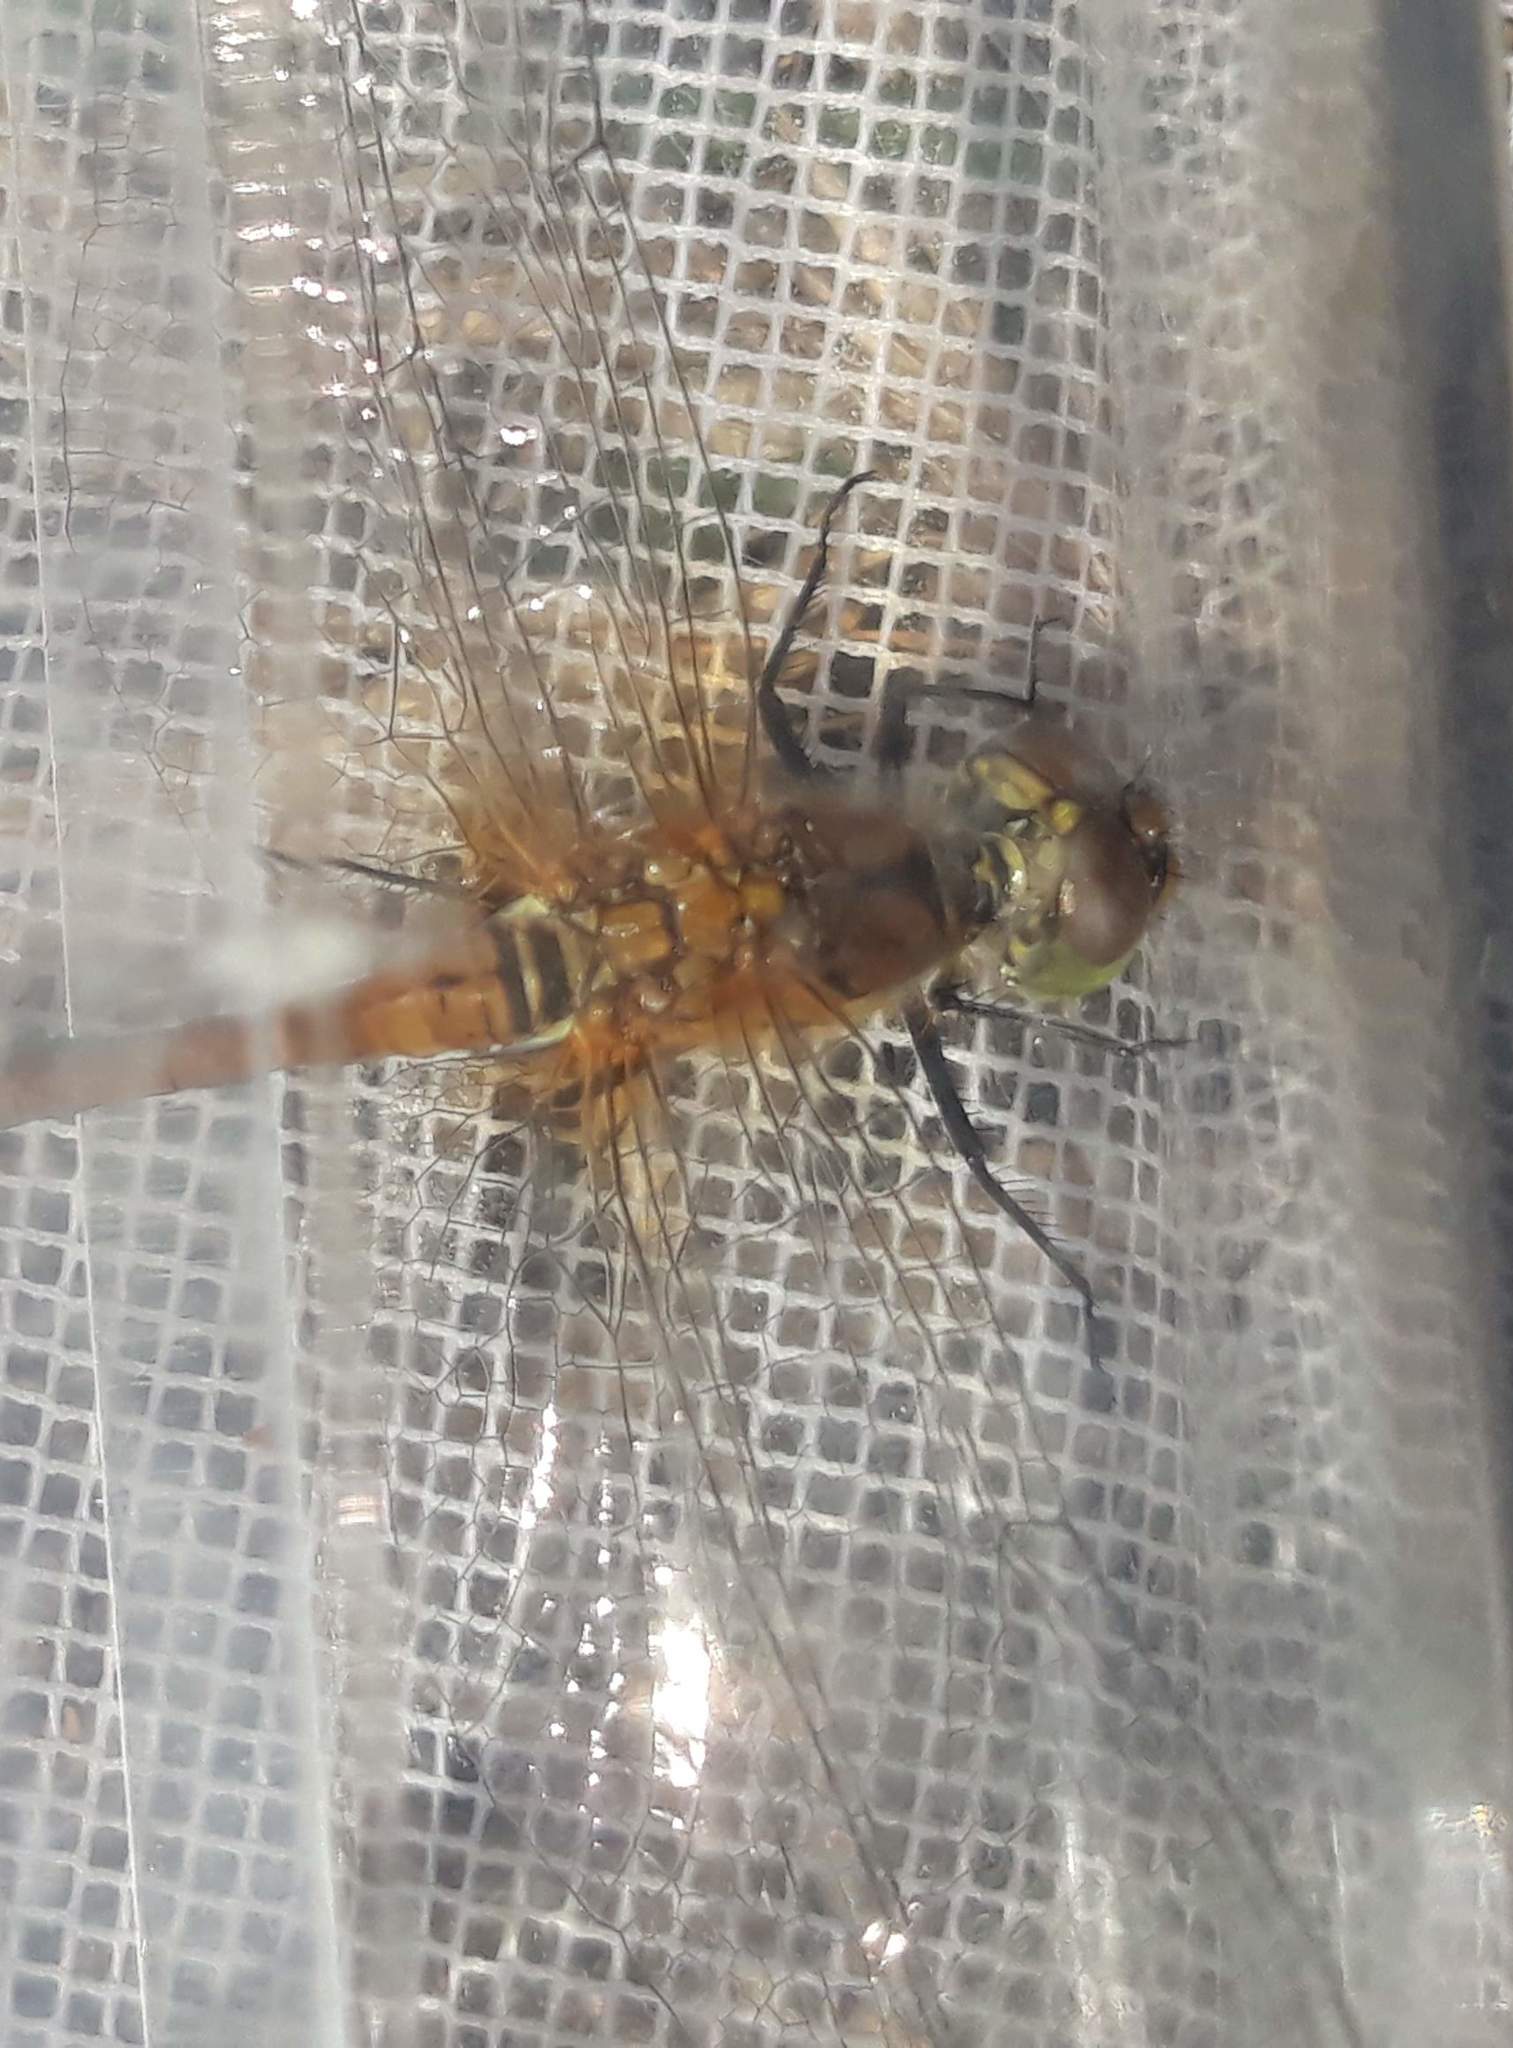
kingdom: Animalia
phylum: Arthropoda
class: Insecta
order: Odonata
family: Libellulidae
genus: Sympetrum
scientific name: Sympetrum sanguineum
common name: Ruddy darter
